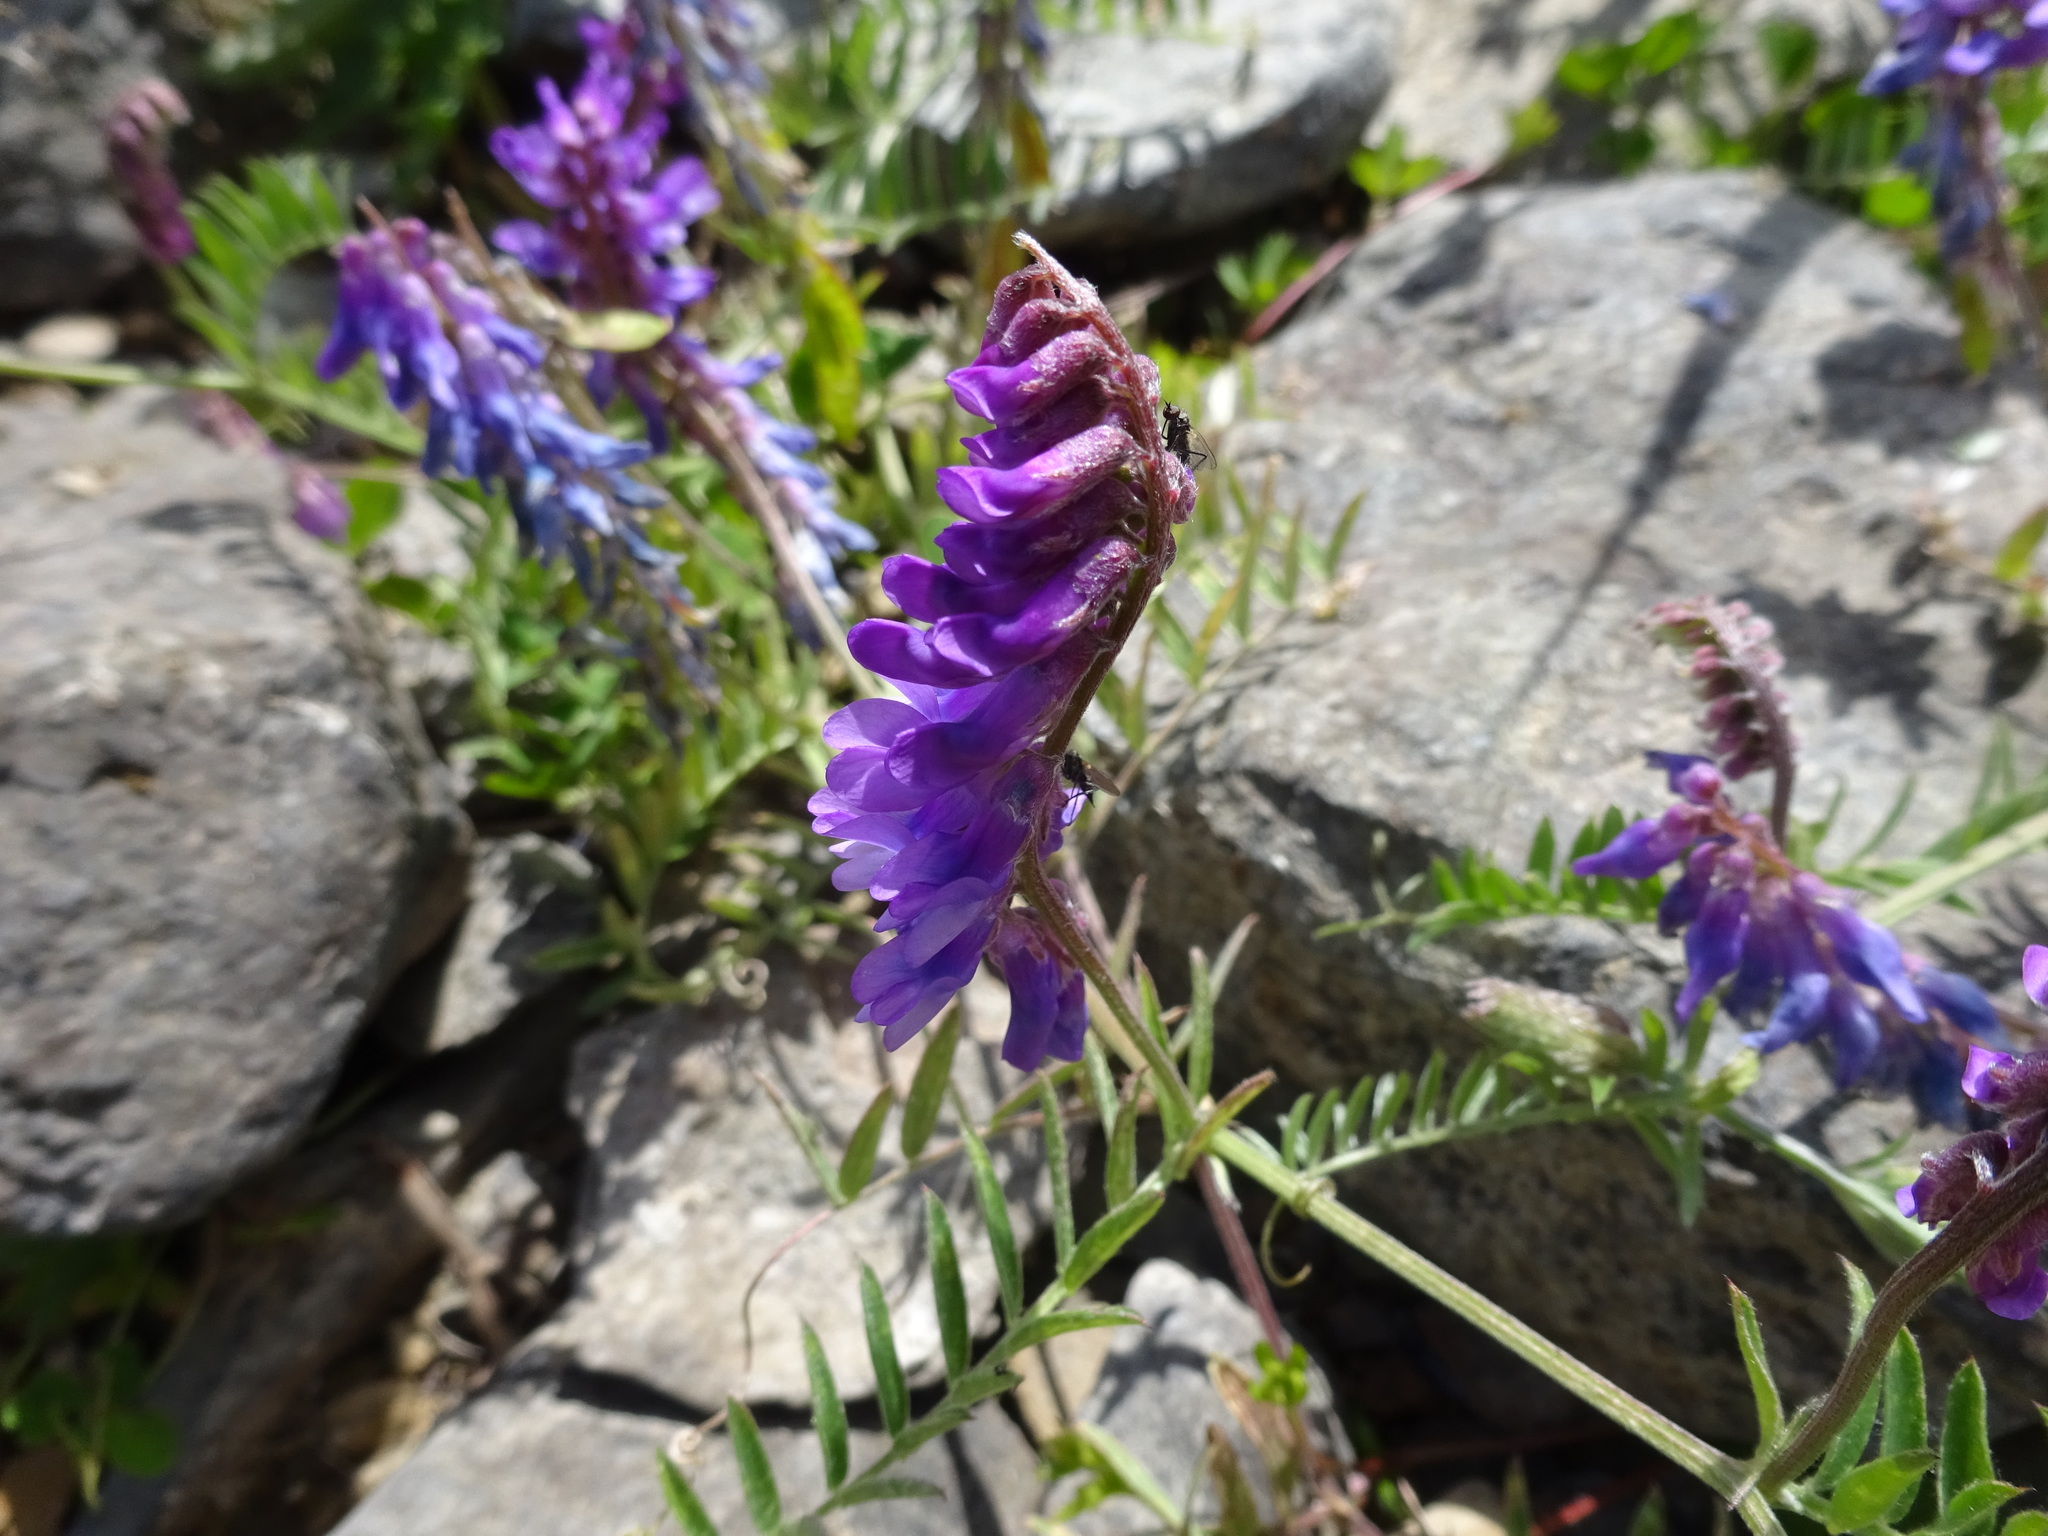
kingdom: Plantae
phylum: Tracheophyta
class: Magnoliopsida
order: Fabales
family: Fabaceae
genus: Vicia
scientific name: Vicia cracca
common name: Bird vetch
